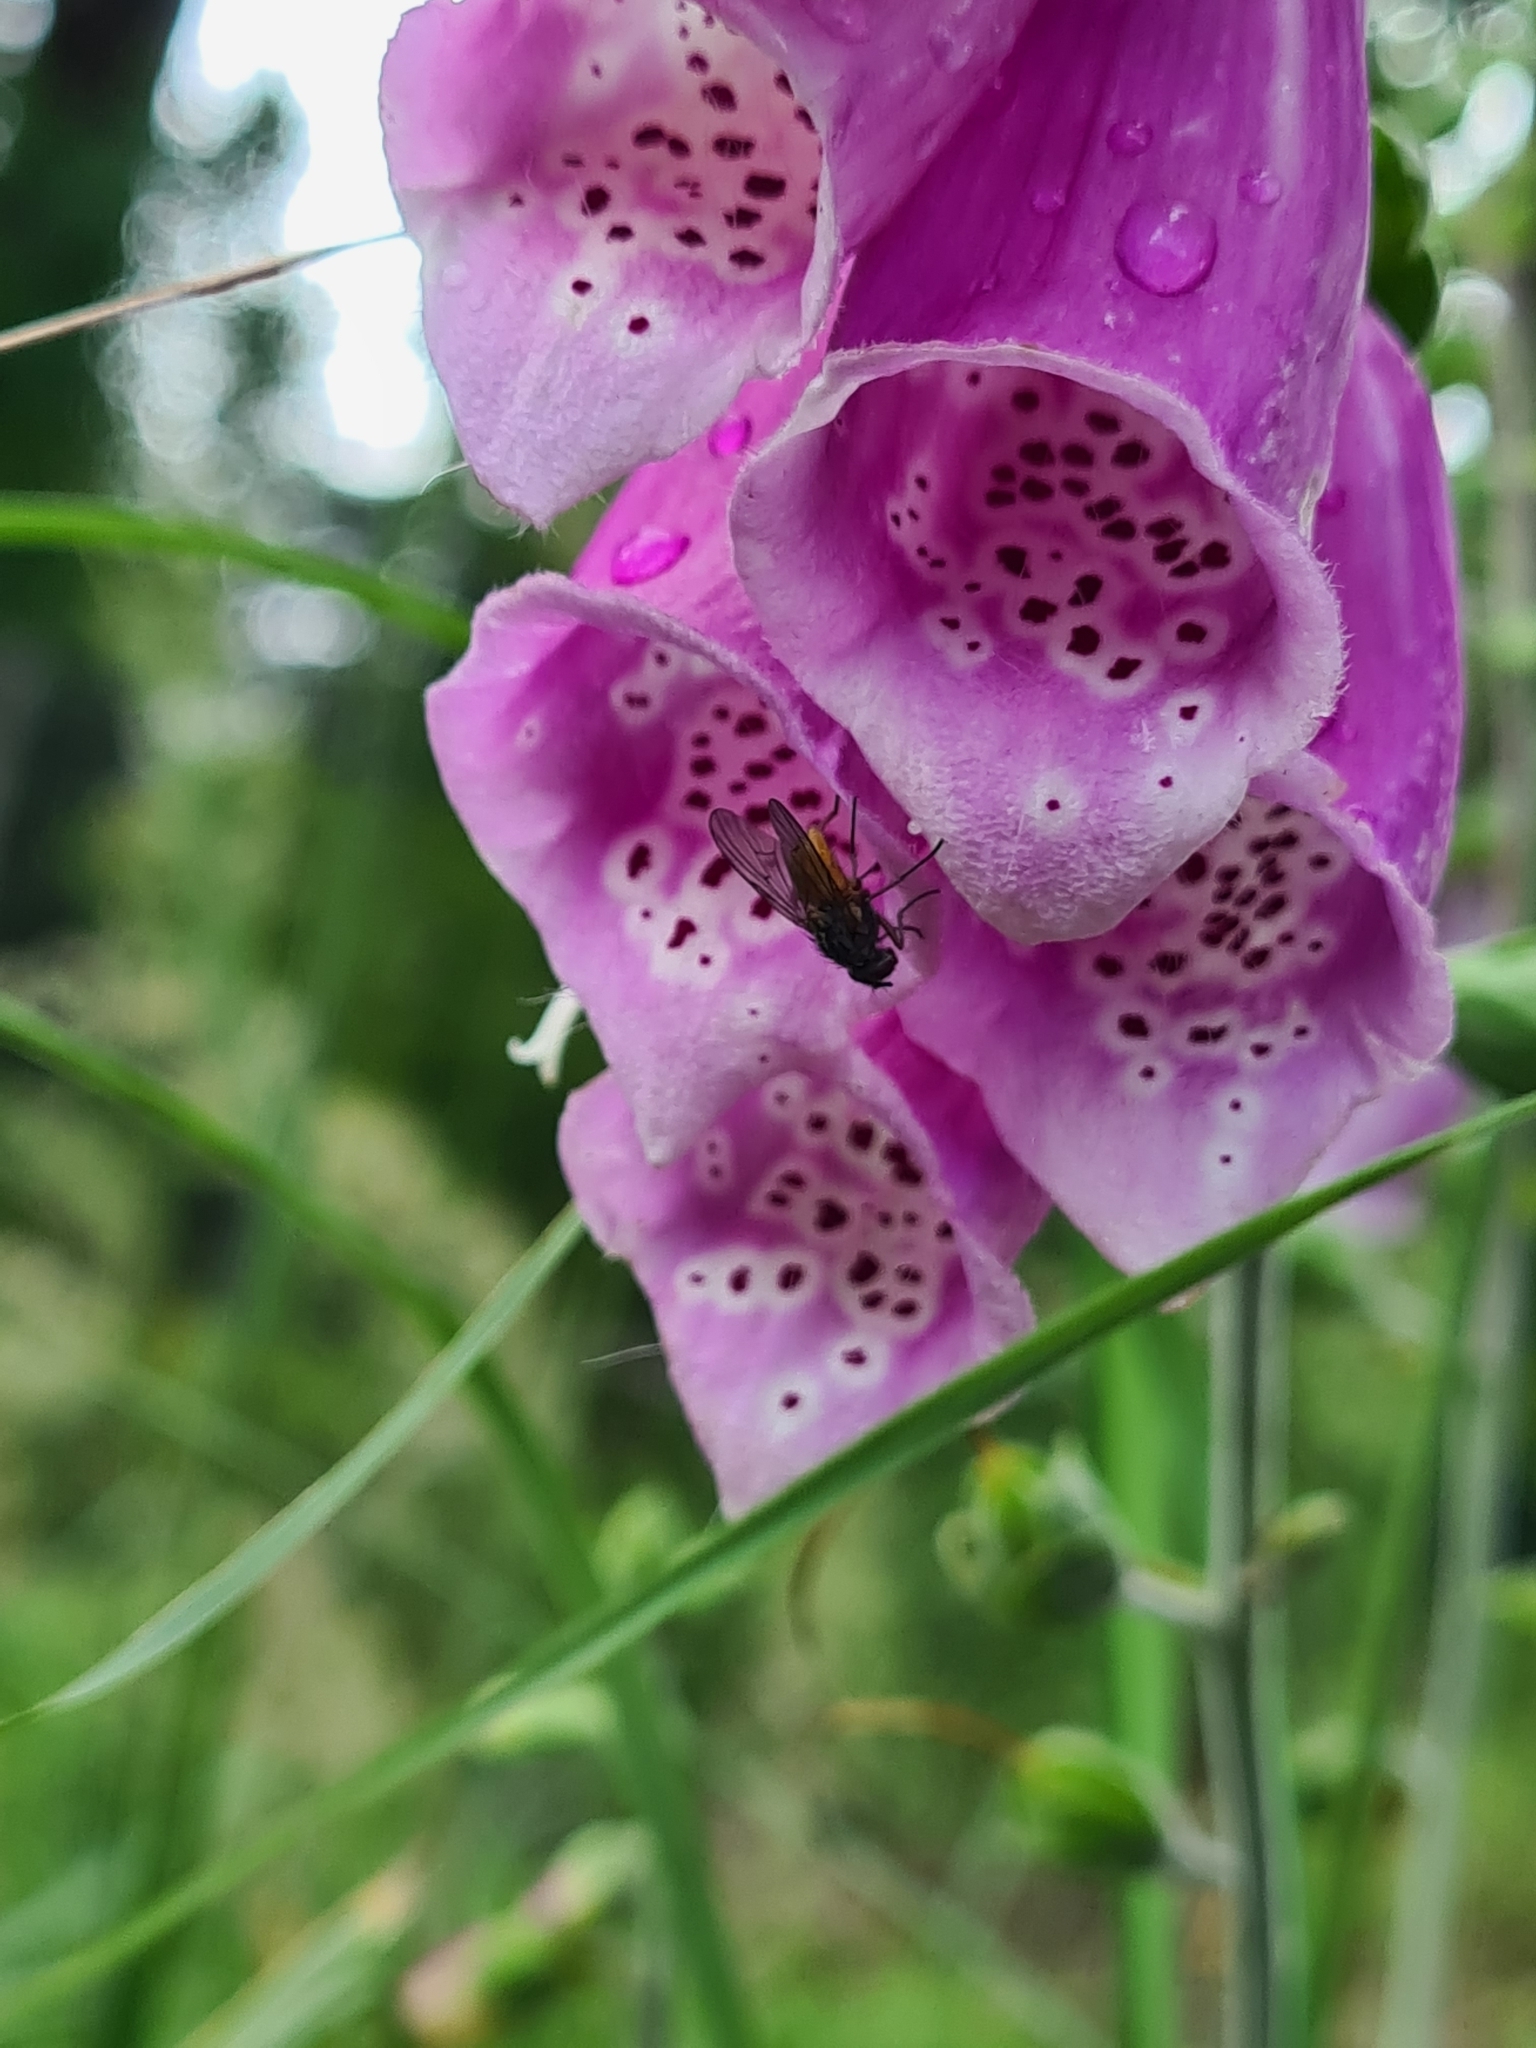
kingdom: Plantae
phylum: Tracheophyta
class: Magnoliopsida
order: Lamiales
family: Plantaginaceae
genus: Digitalis
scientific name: Digitalis purpurea
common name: Foxglove
